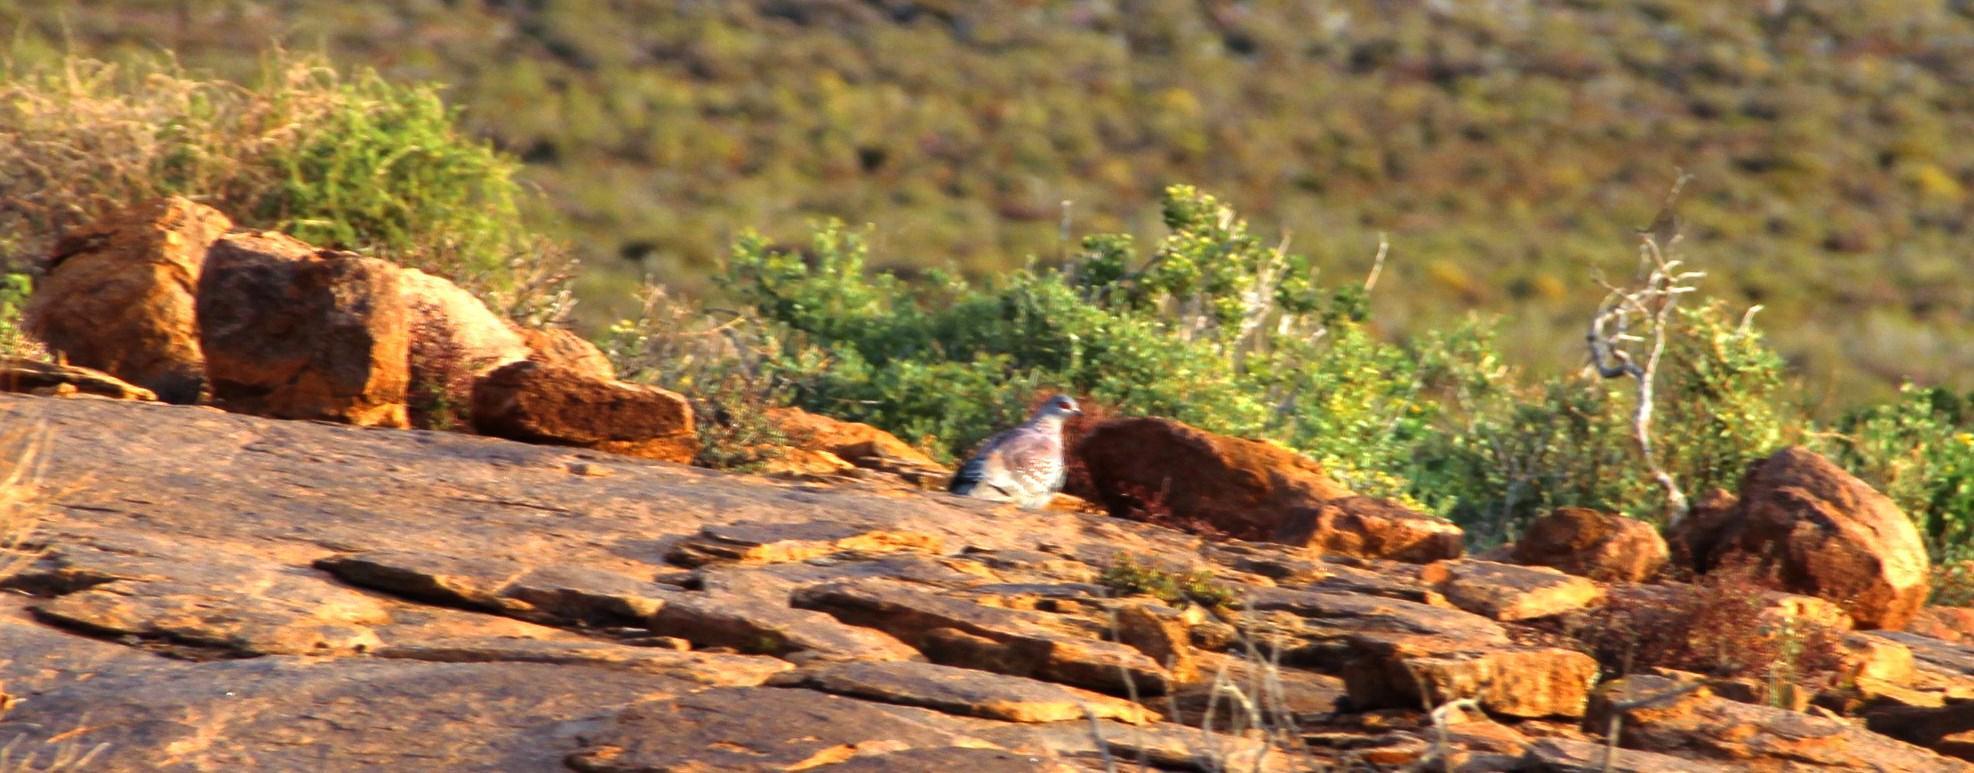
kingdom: Animalia
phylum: Chordata
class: Aves
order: Columbiformes
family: Columbidae
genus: Columba
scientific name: Columba guinea
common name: Speckled pigeon
